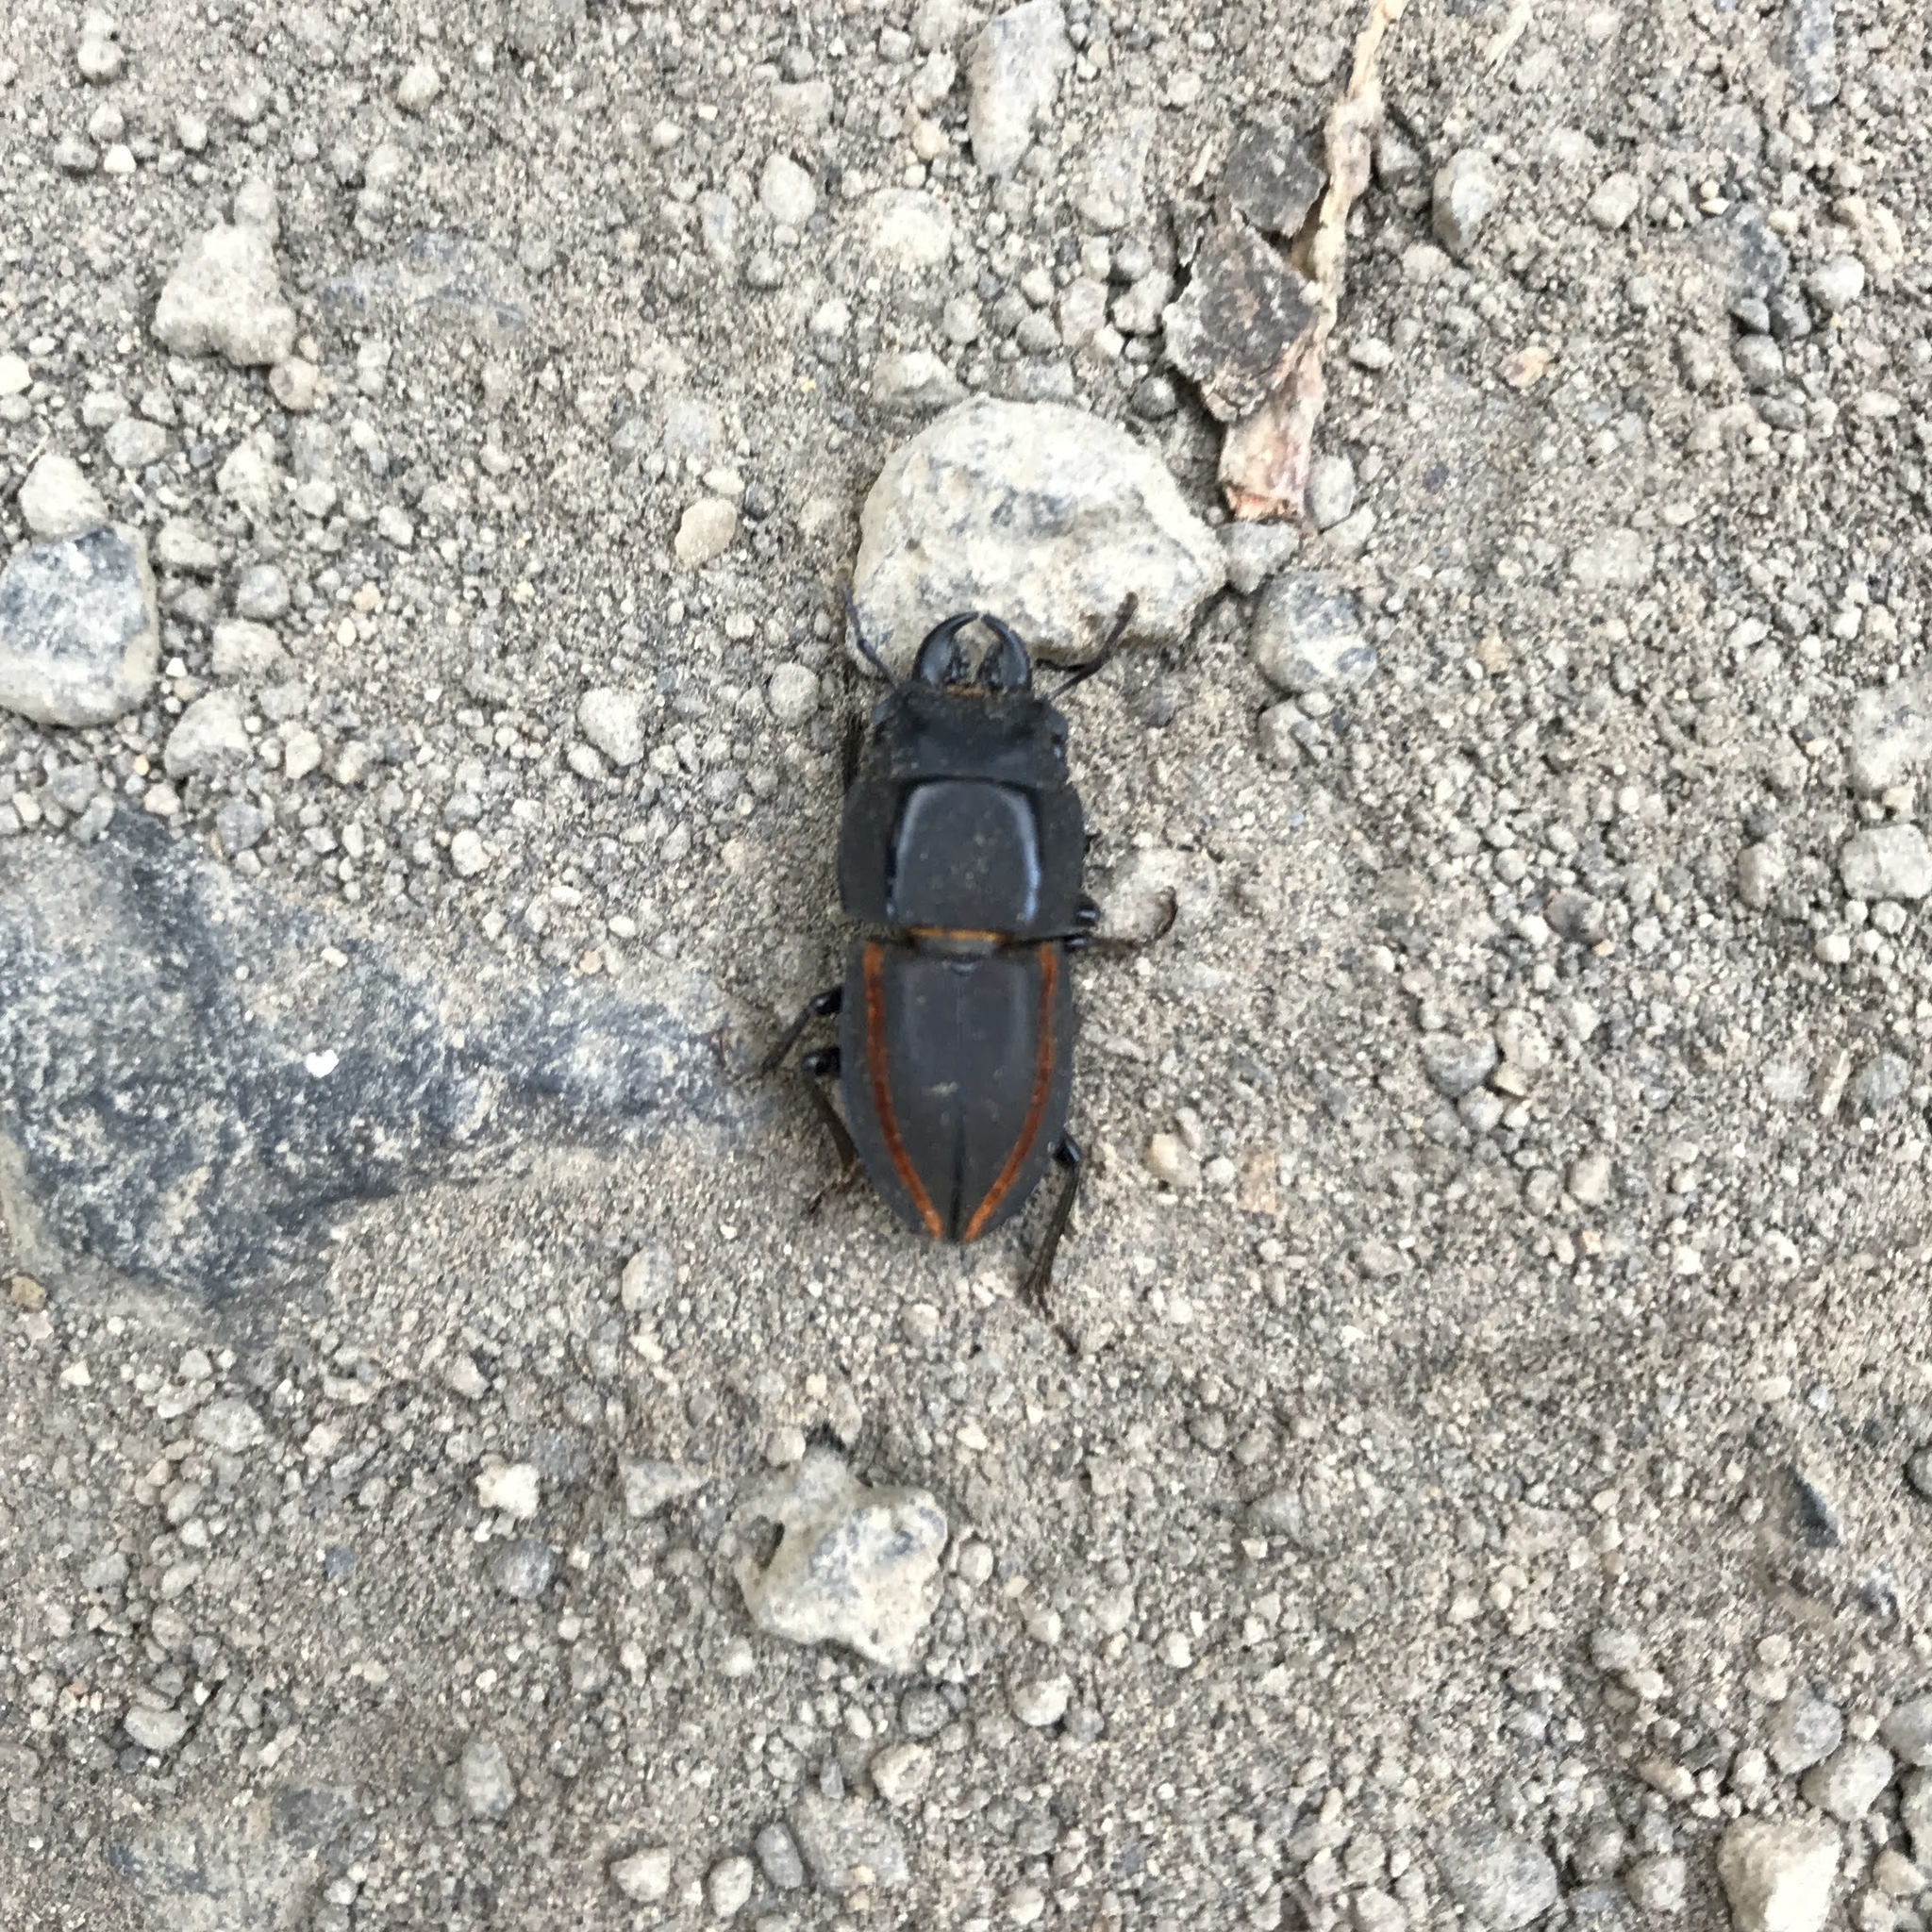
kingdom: Animalia
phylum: Arthropoda
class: Insecta
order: Coleoptera
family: Lucanidae
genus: Erichius
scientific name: Erichius vittatus
